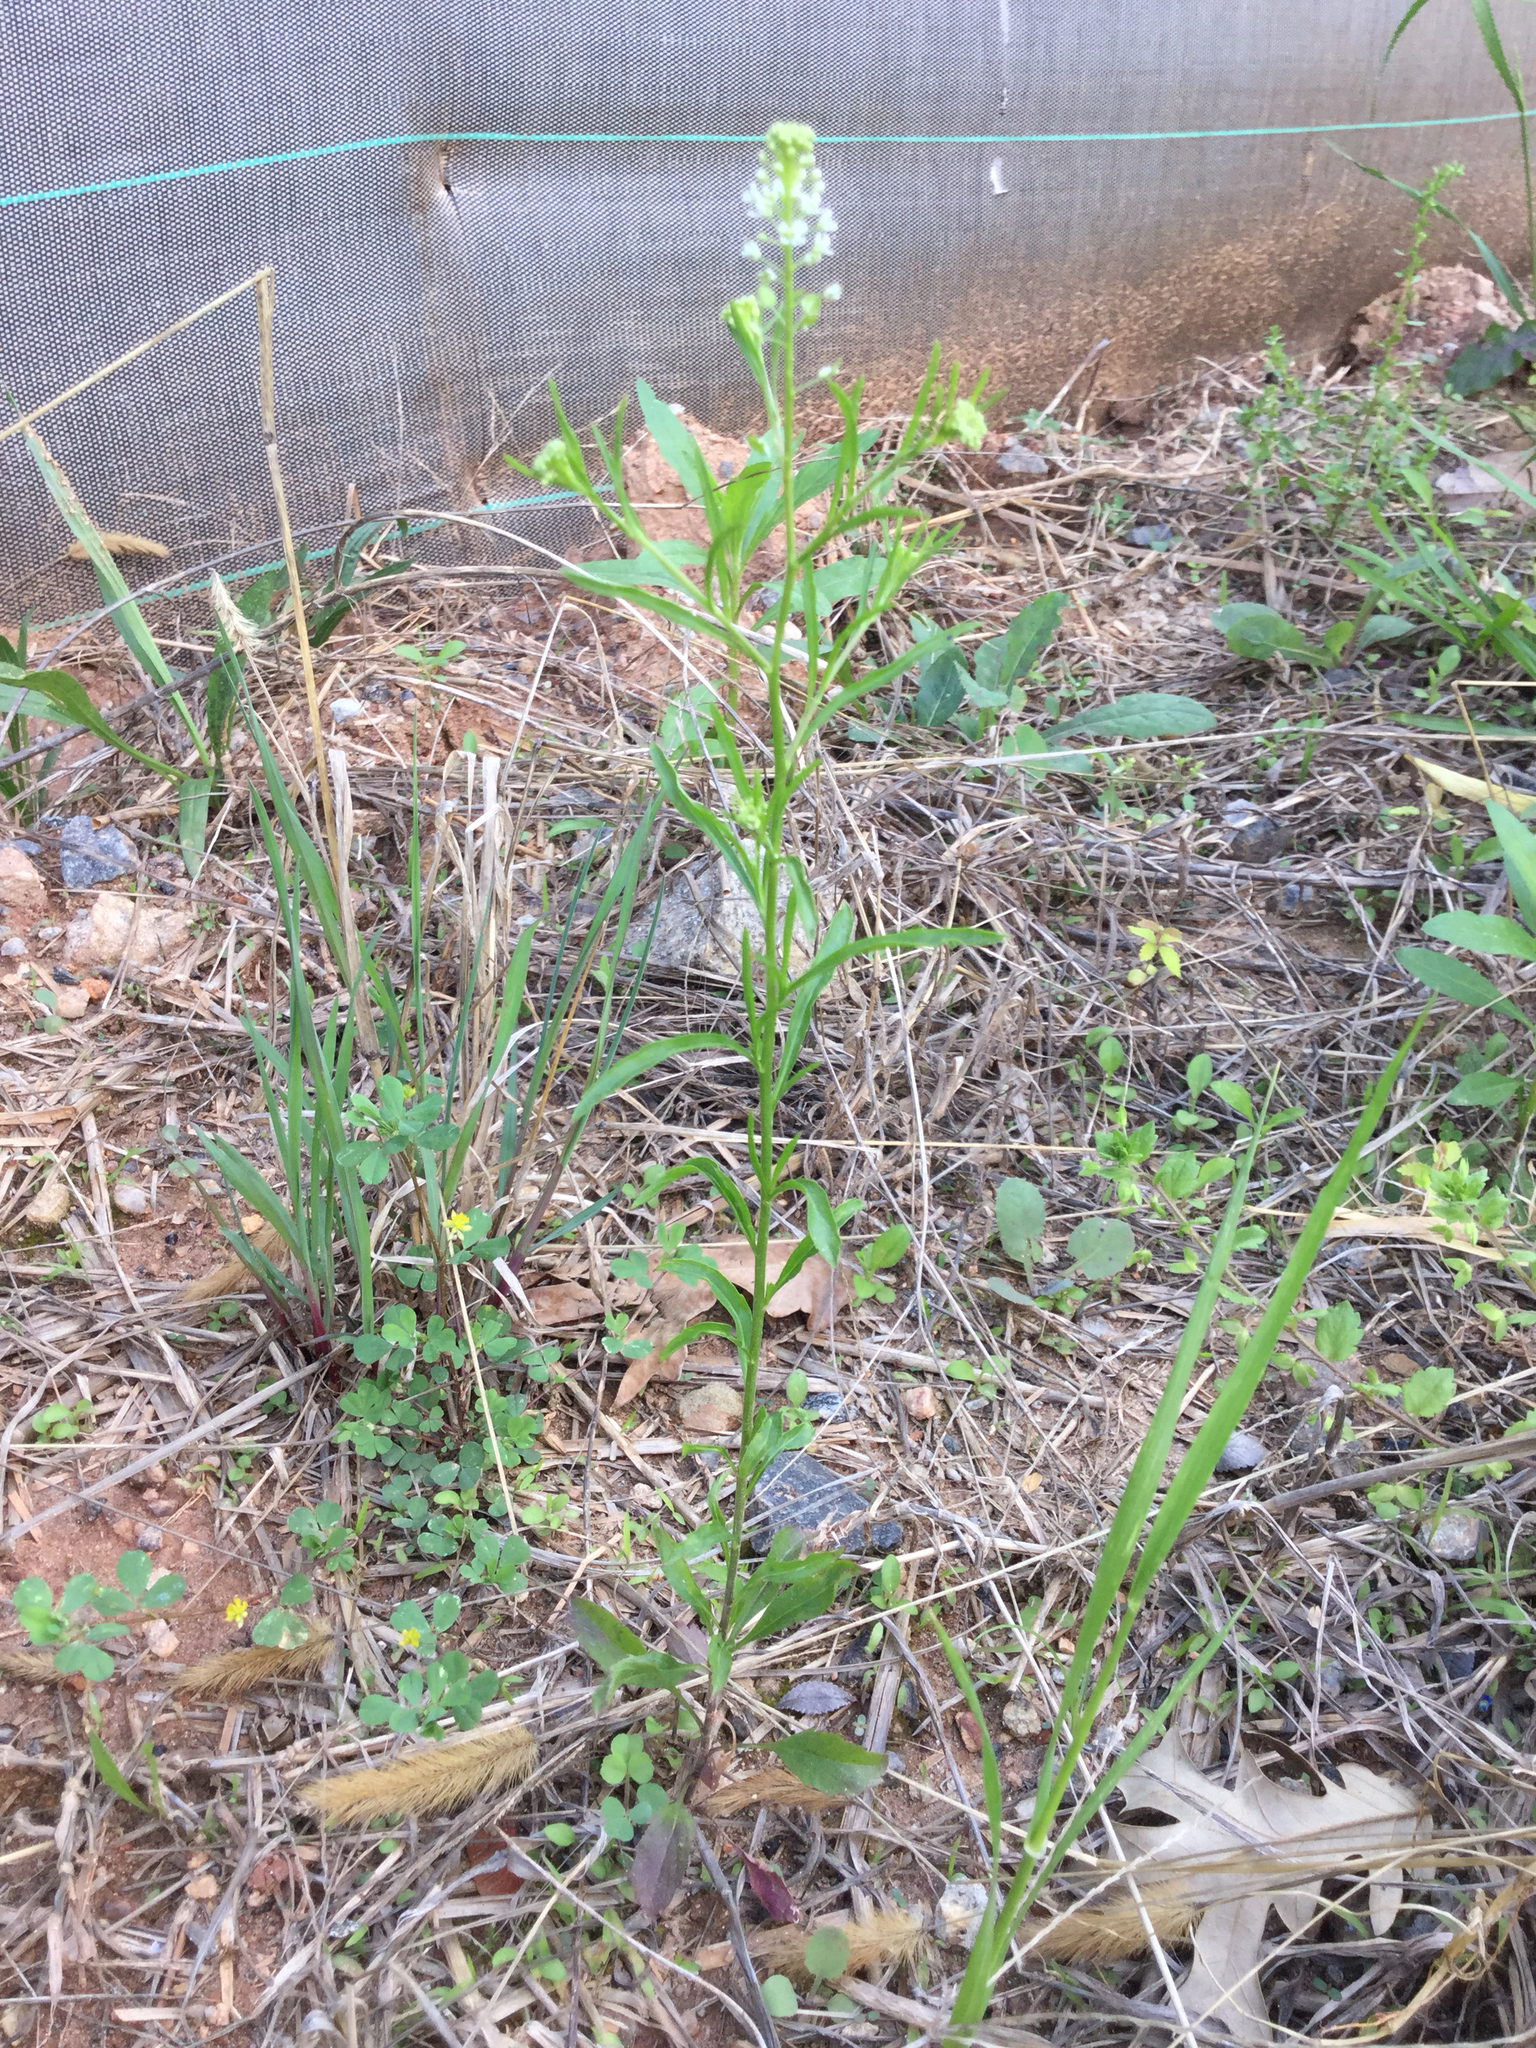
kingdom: Plantae
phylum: Tracheophyta
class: Magnoliopsida
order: Brassicales
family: Brassicaceae
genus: Lepidium
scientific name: Lepidium virginicum
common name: Least pepperwort
